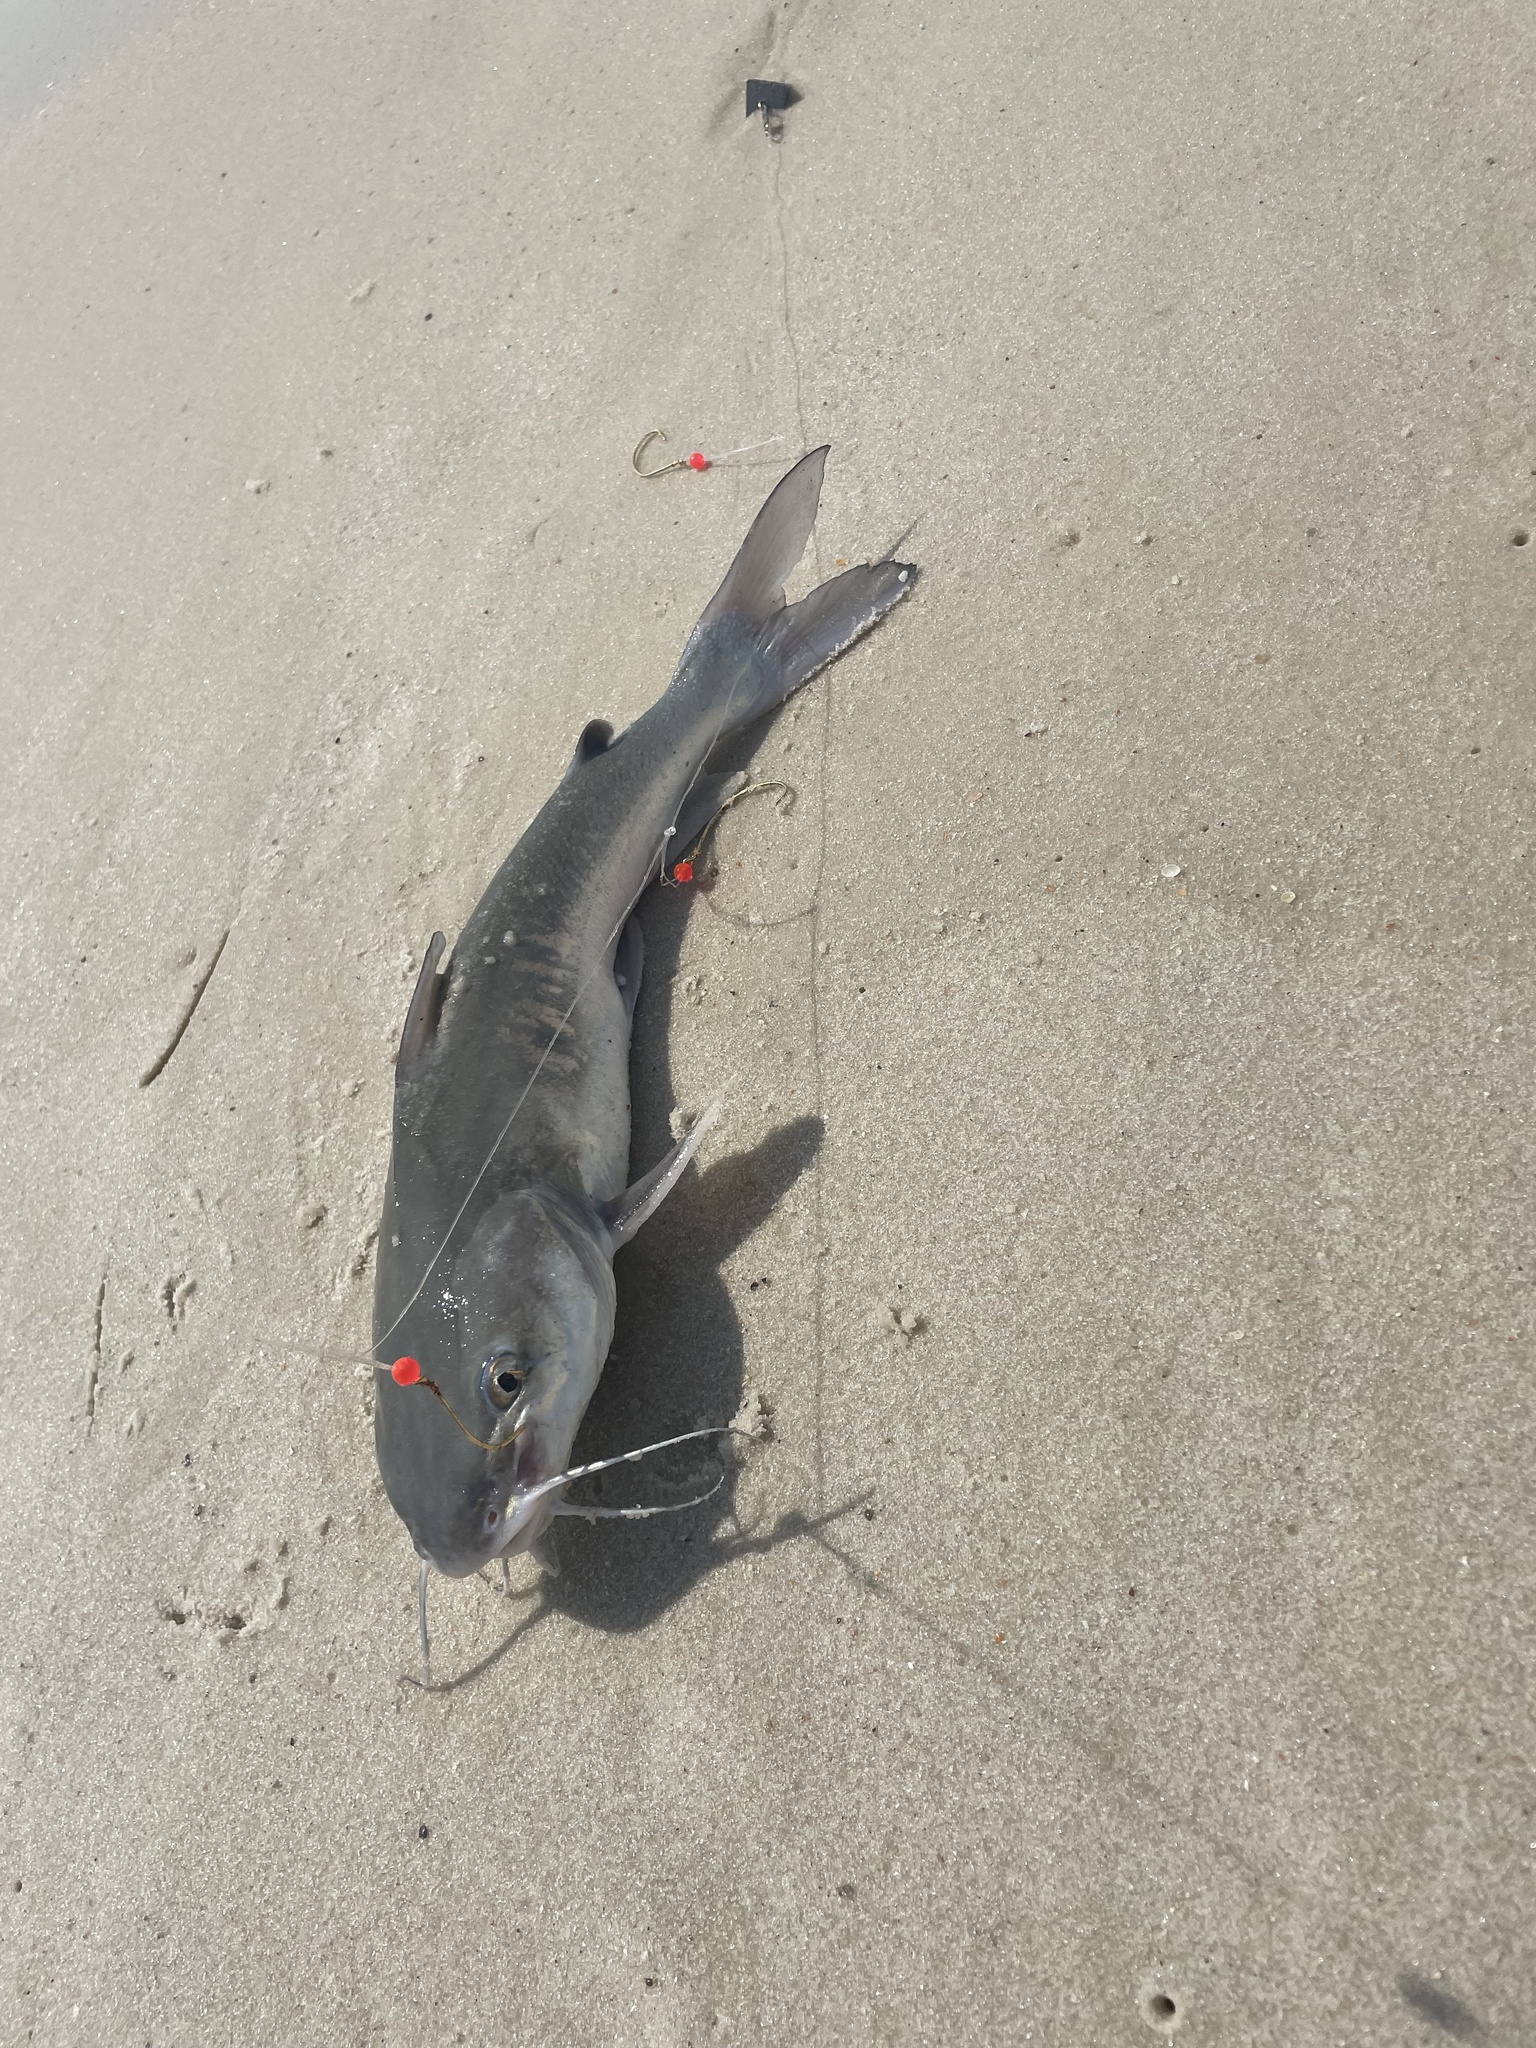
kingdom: Animalia
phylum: Chordata
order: Siluriformes
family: Ariidae
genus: Ariopsis
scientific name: Ariopsis felis
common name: Hardhead catfish
